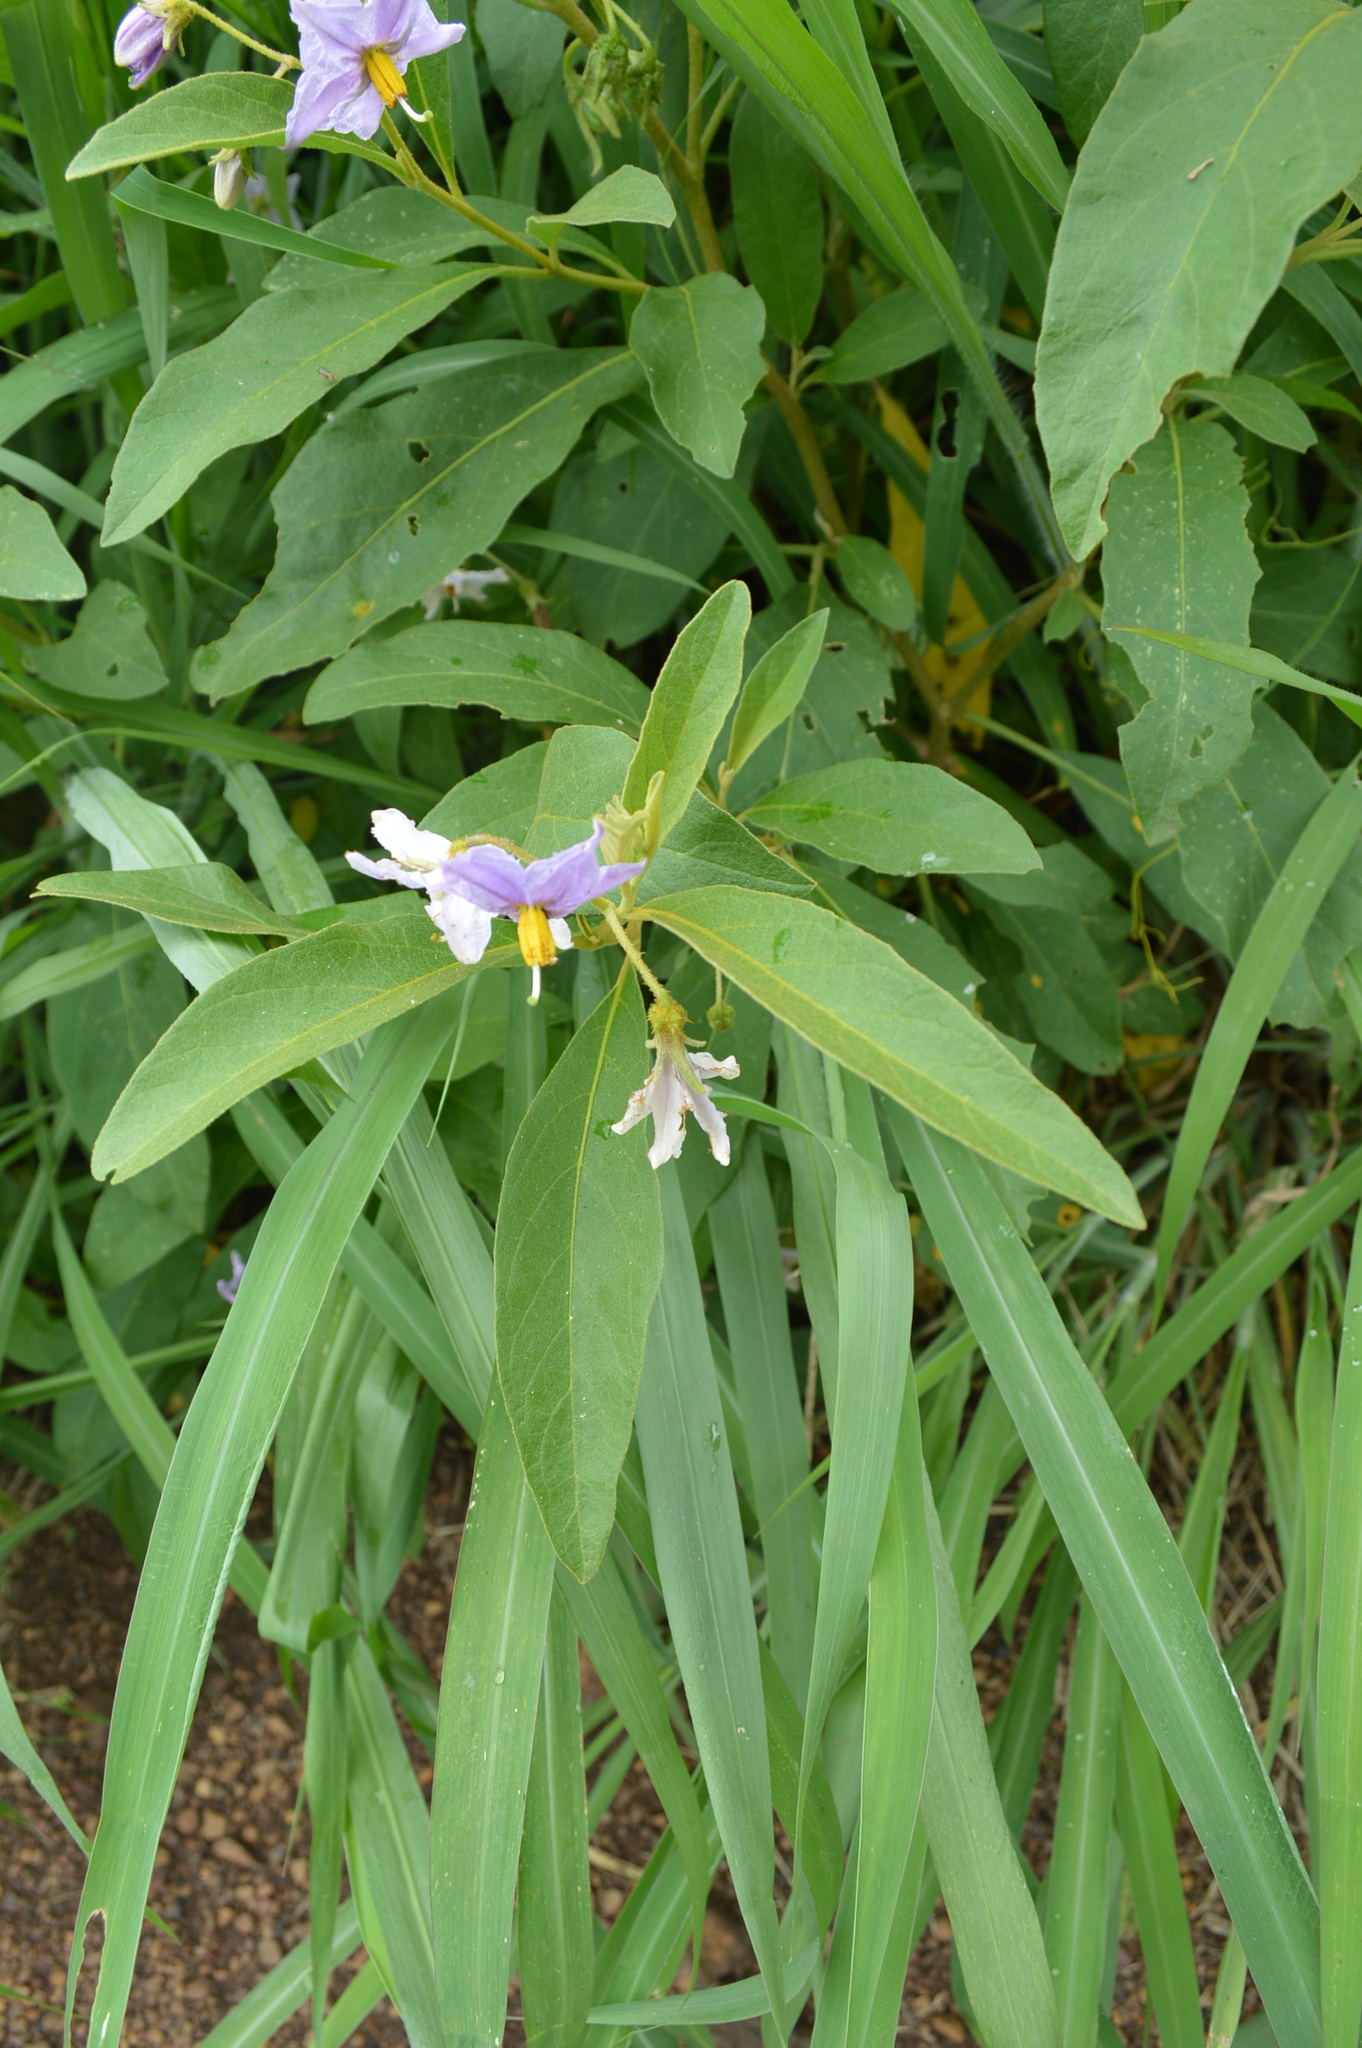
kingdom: Plantae
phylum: Tracheophyta
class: Magnoliopsida
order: Solanales
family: Solanaceae
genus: Solanum
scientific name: Solanum campylacanthum
